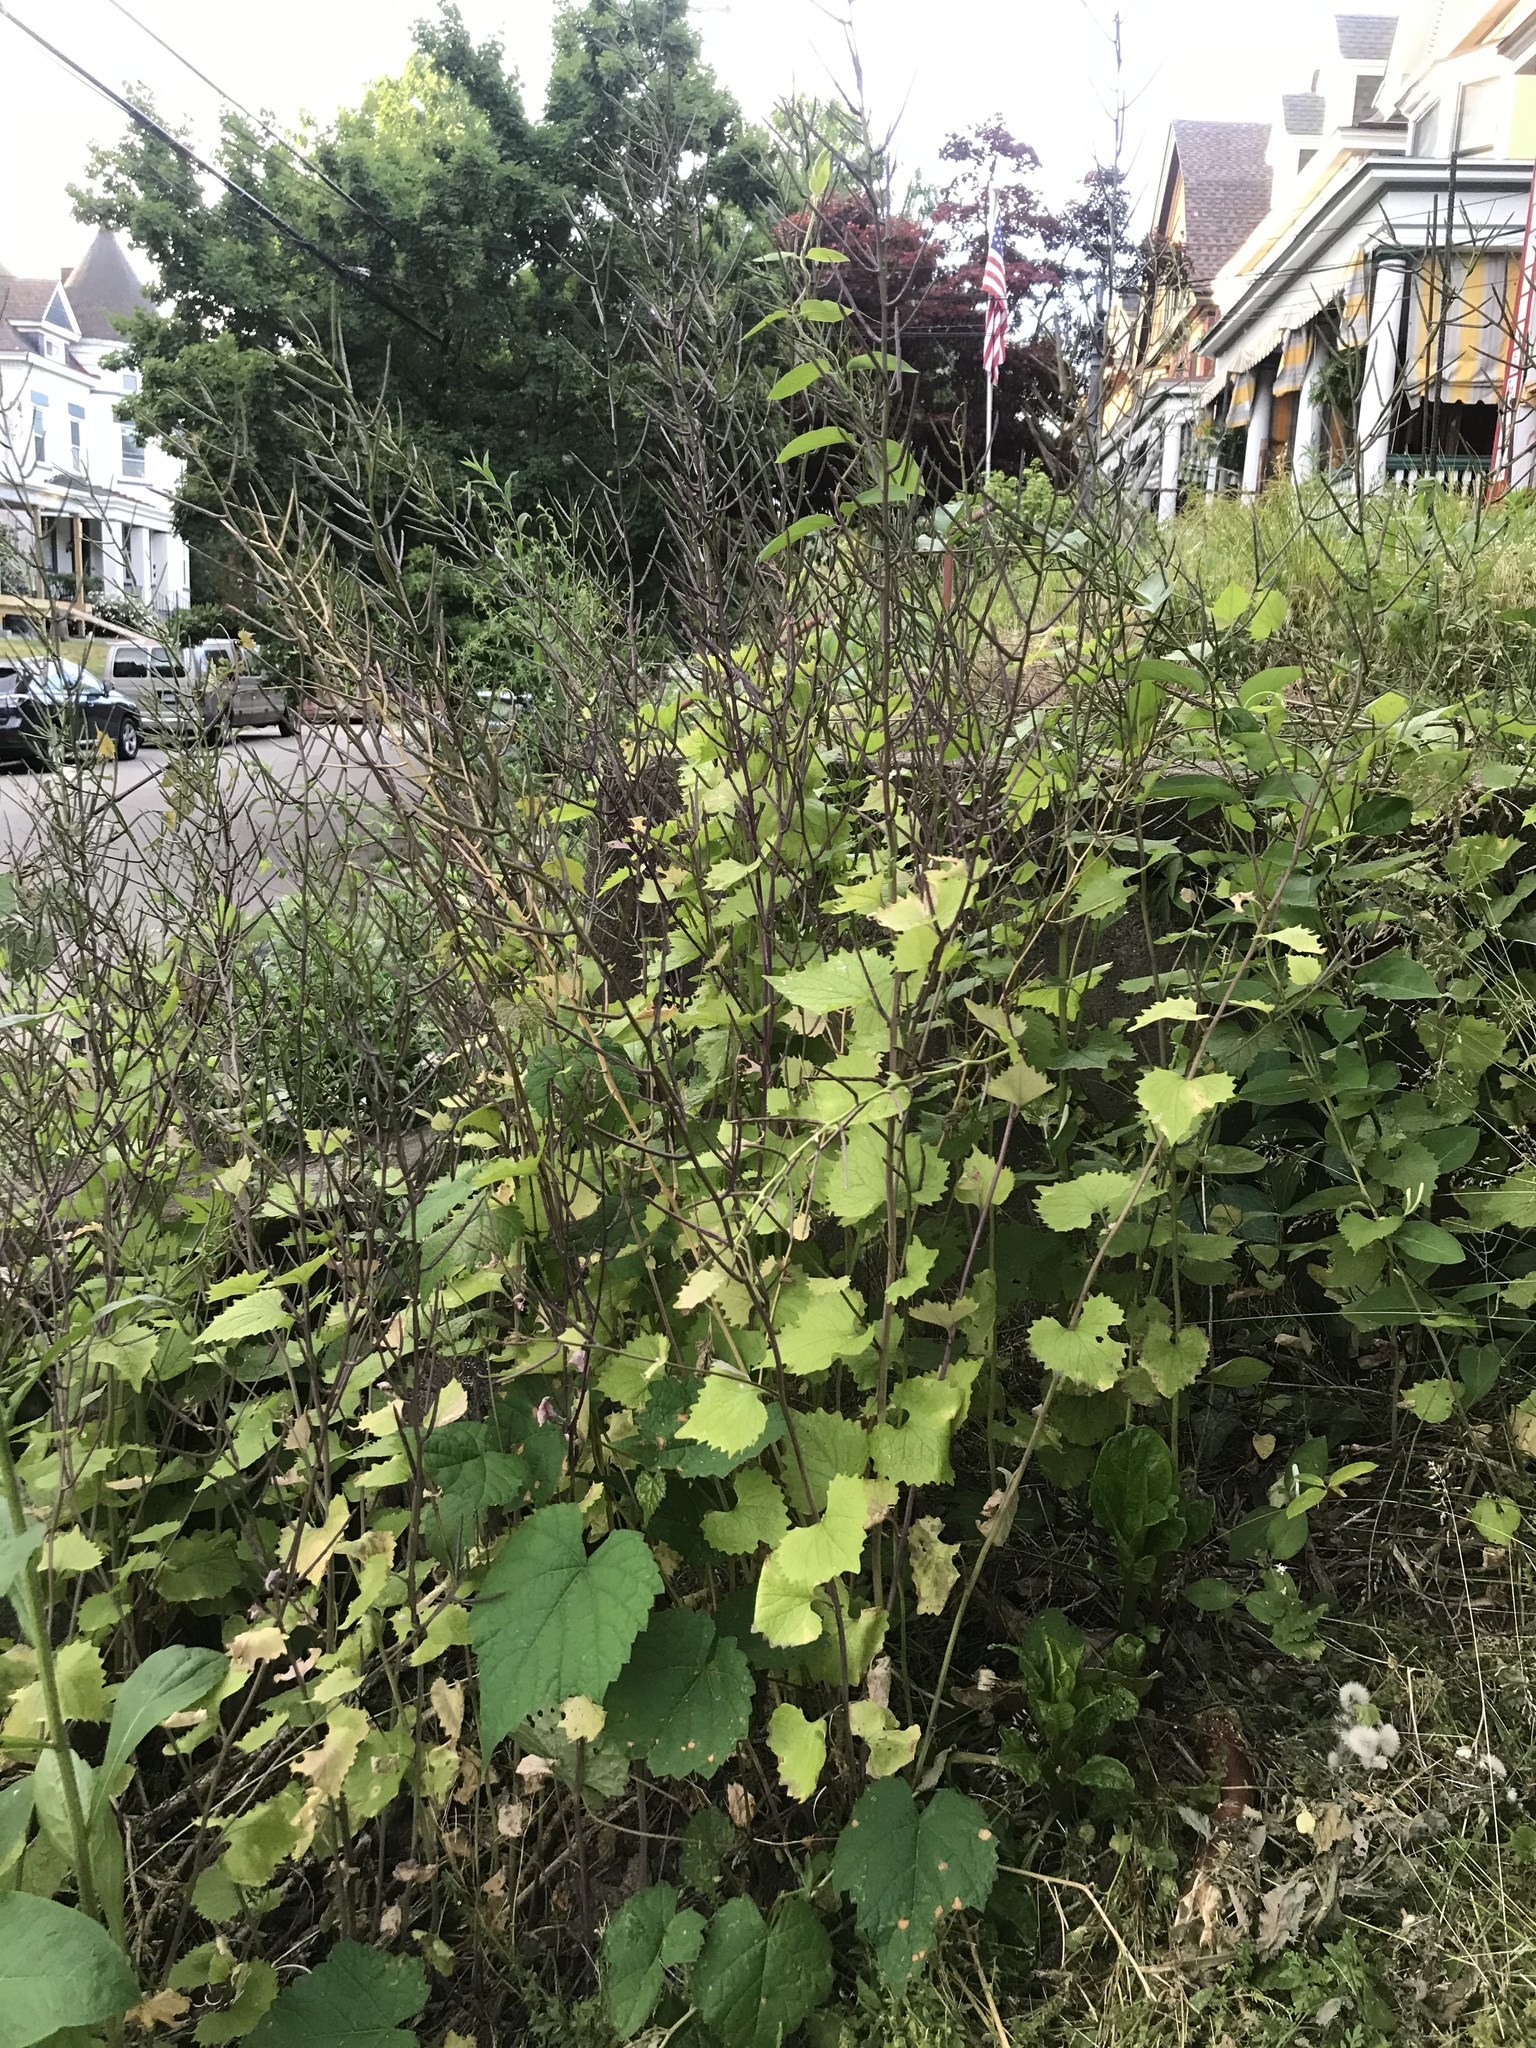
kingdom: Plantae
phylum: Tracheophyta
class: Magnoliopsida
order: Brassicales
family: Brassicaceae
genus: Alliaria
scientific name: Alliaria petiolata
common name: Garlic mustard
